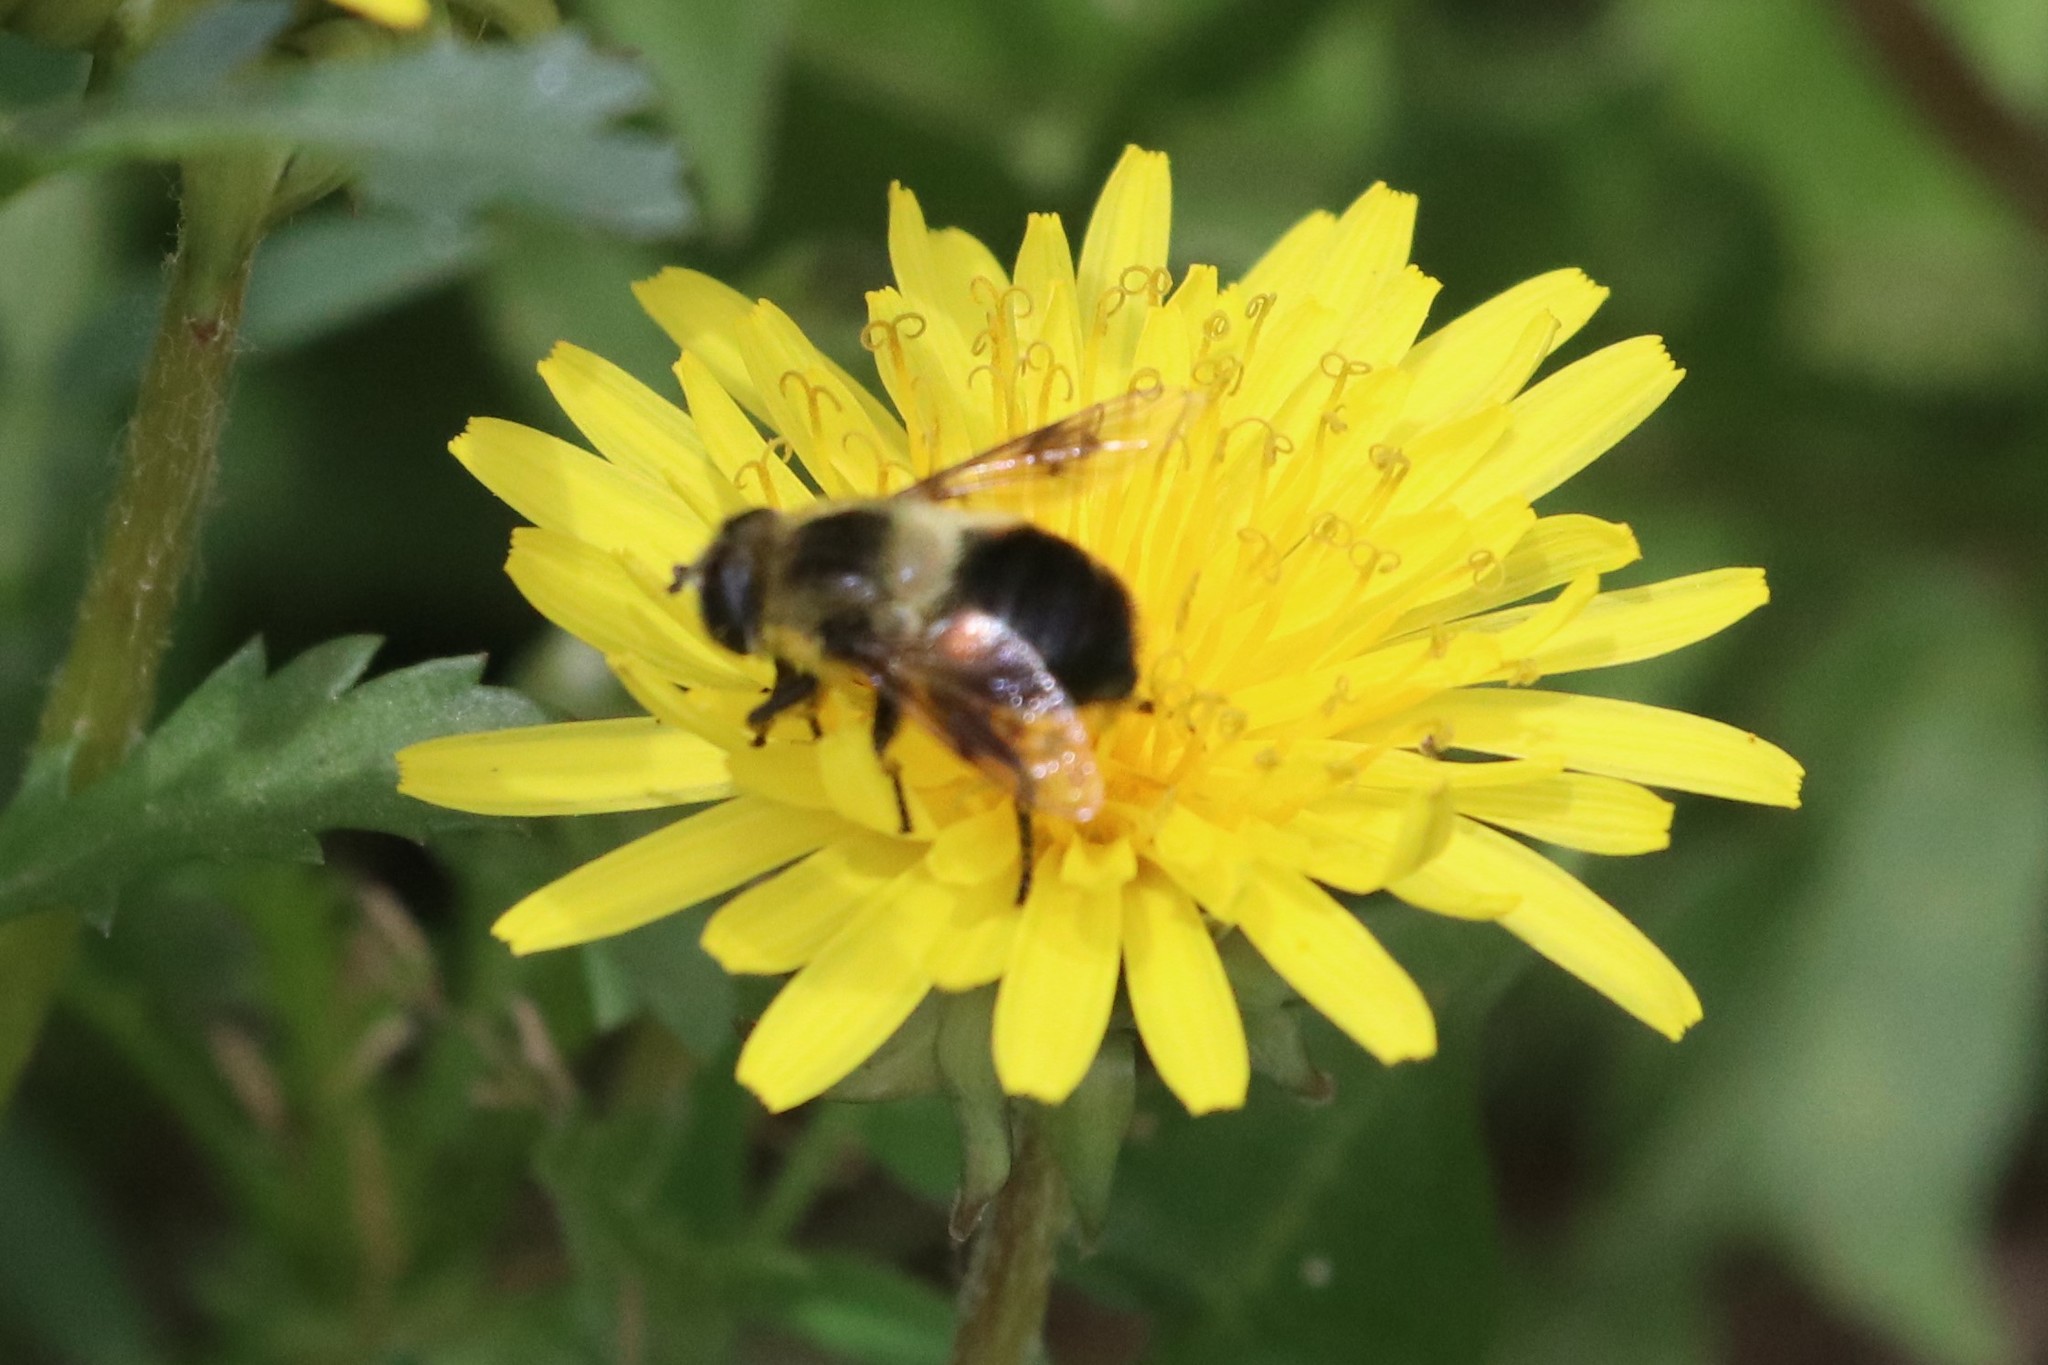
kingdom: Animalia
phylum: Arthropoda
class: Insecta
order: Diptera
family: Syrphidae
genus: Eristalis
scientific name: Eristalis anthophorina
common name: Orange-spotted drone fly
